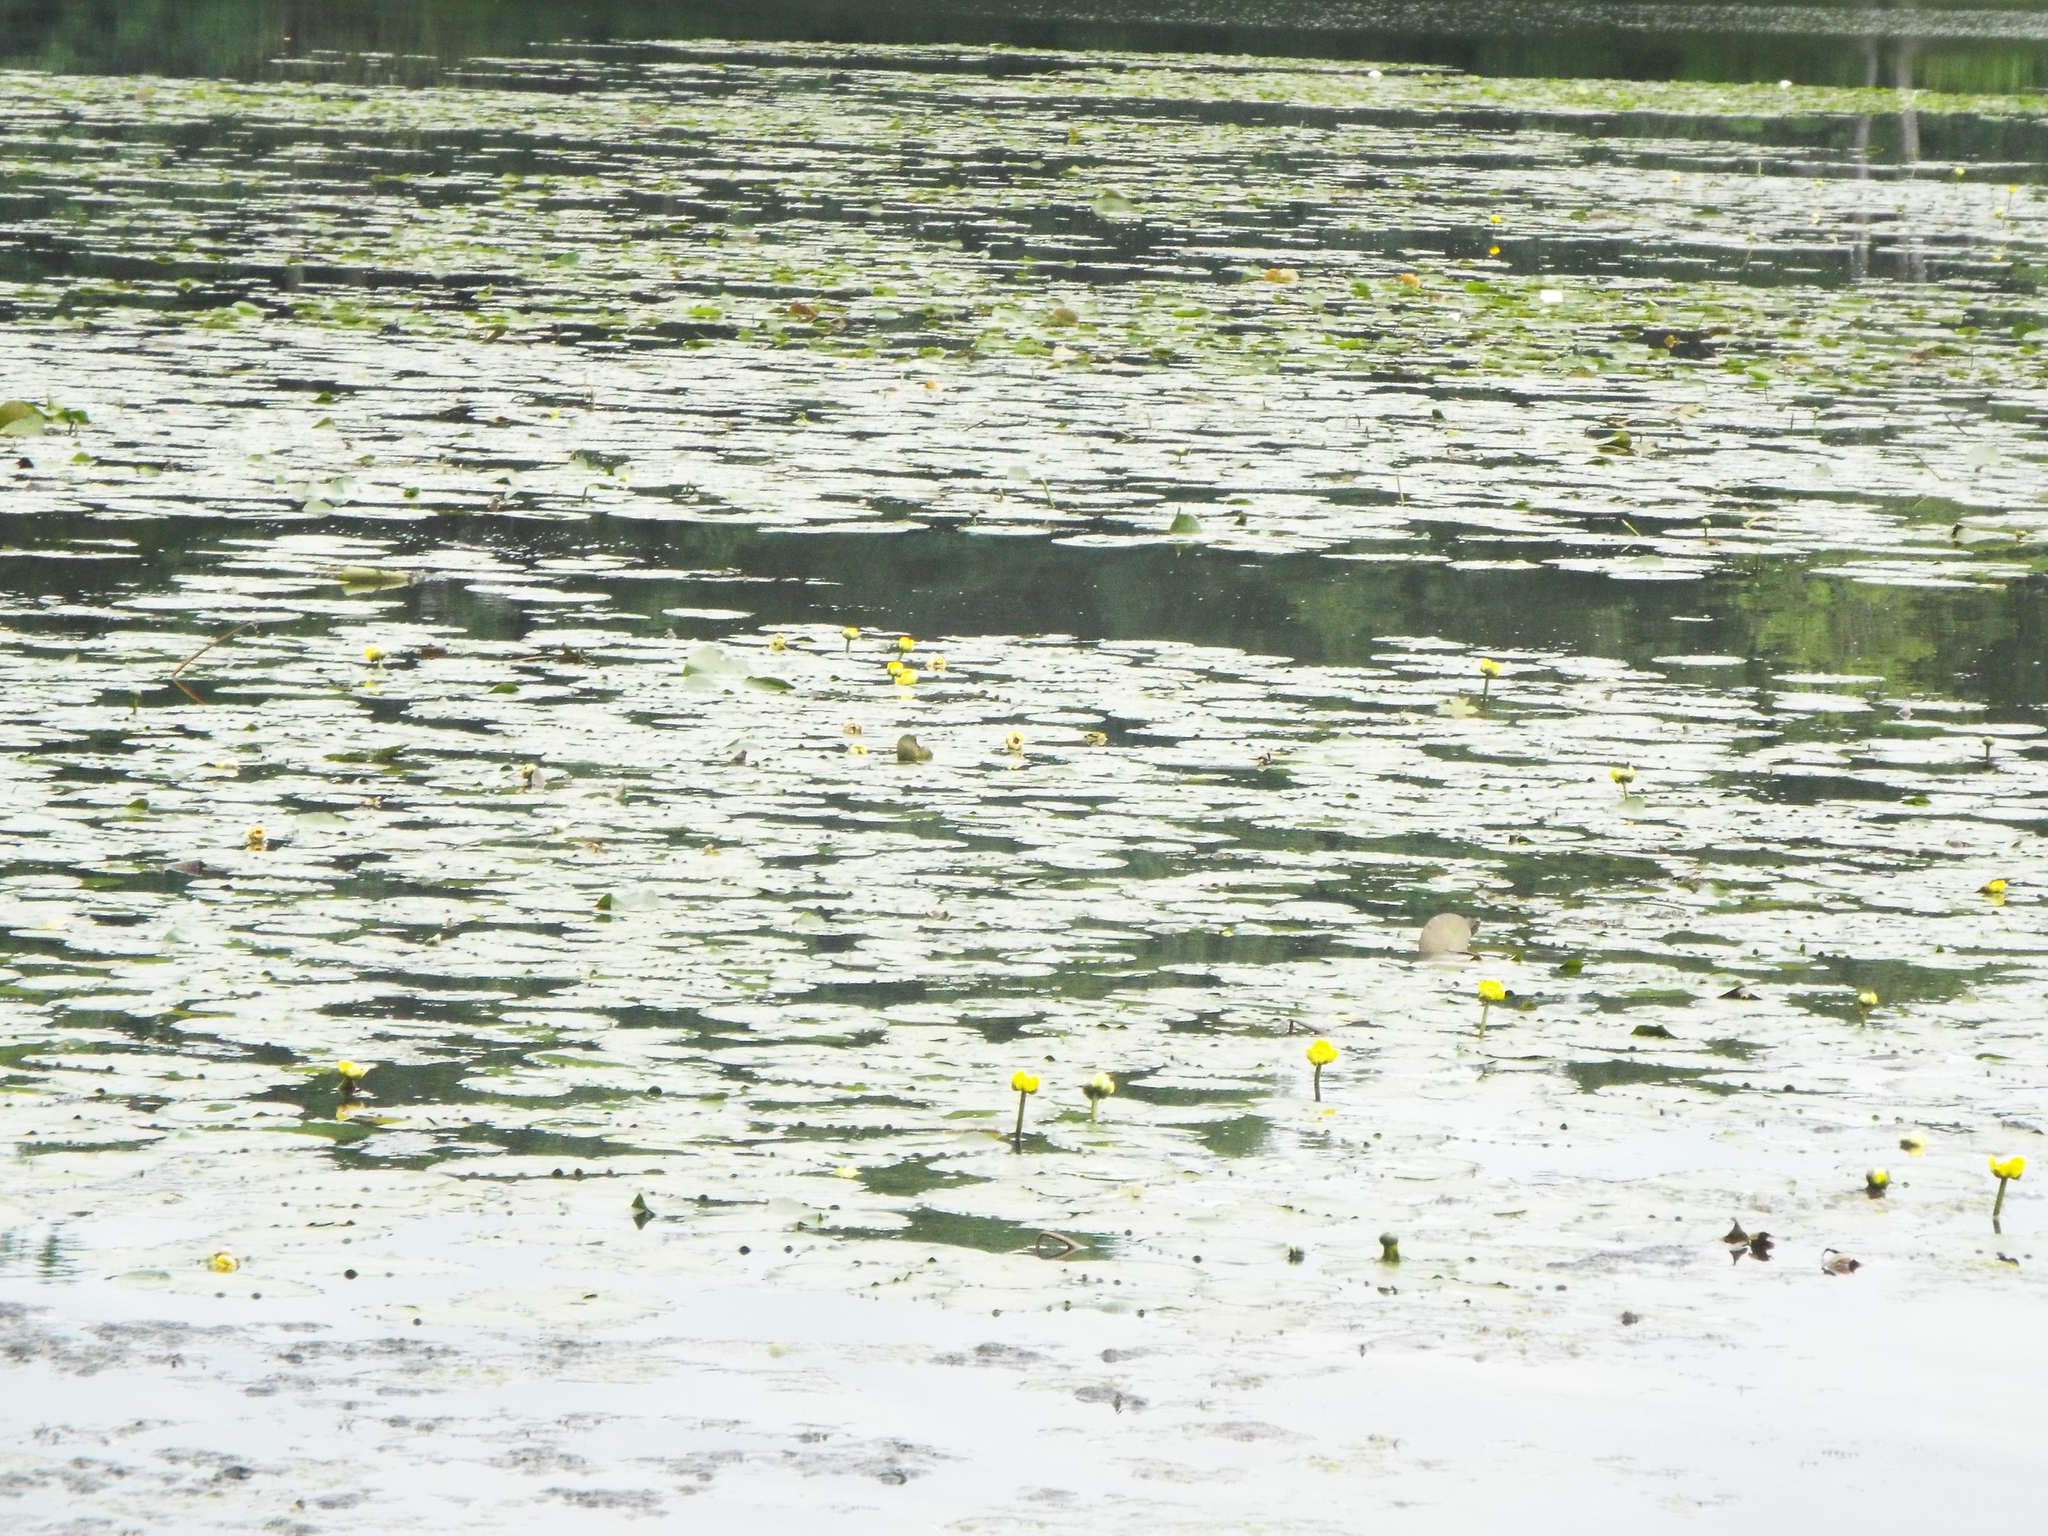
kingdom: Plantae
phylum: Tracheophyta
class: Magnoliopsida
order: Nymphaeales
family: Nymphaeaceae
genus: Nuphar
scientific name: Nuphar variegata
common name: Beaver-root
